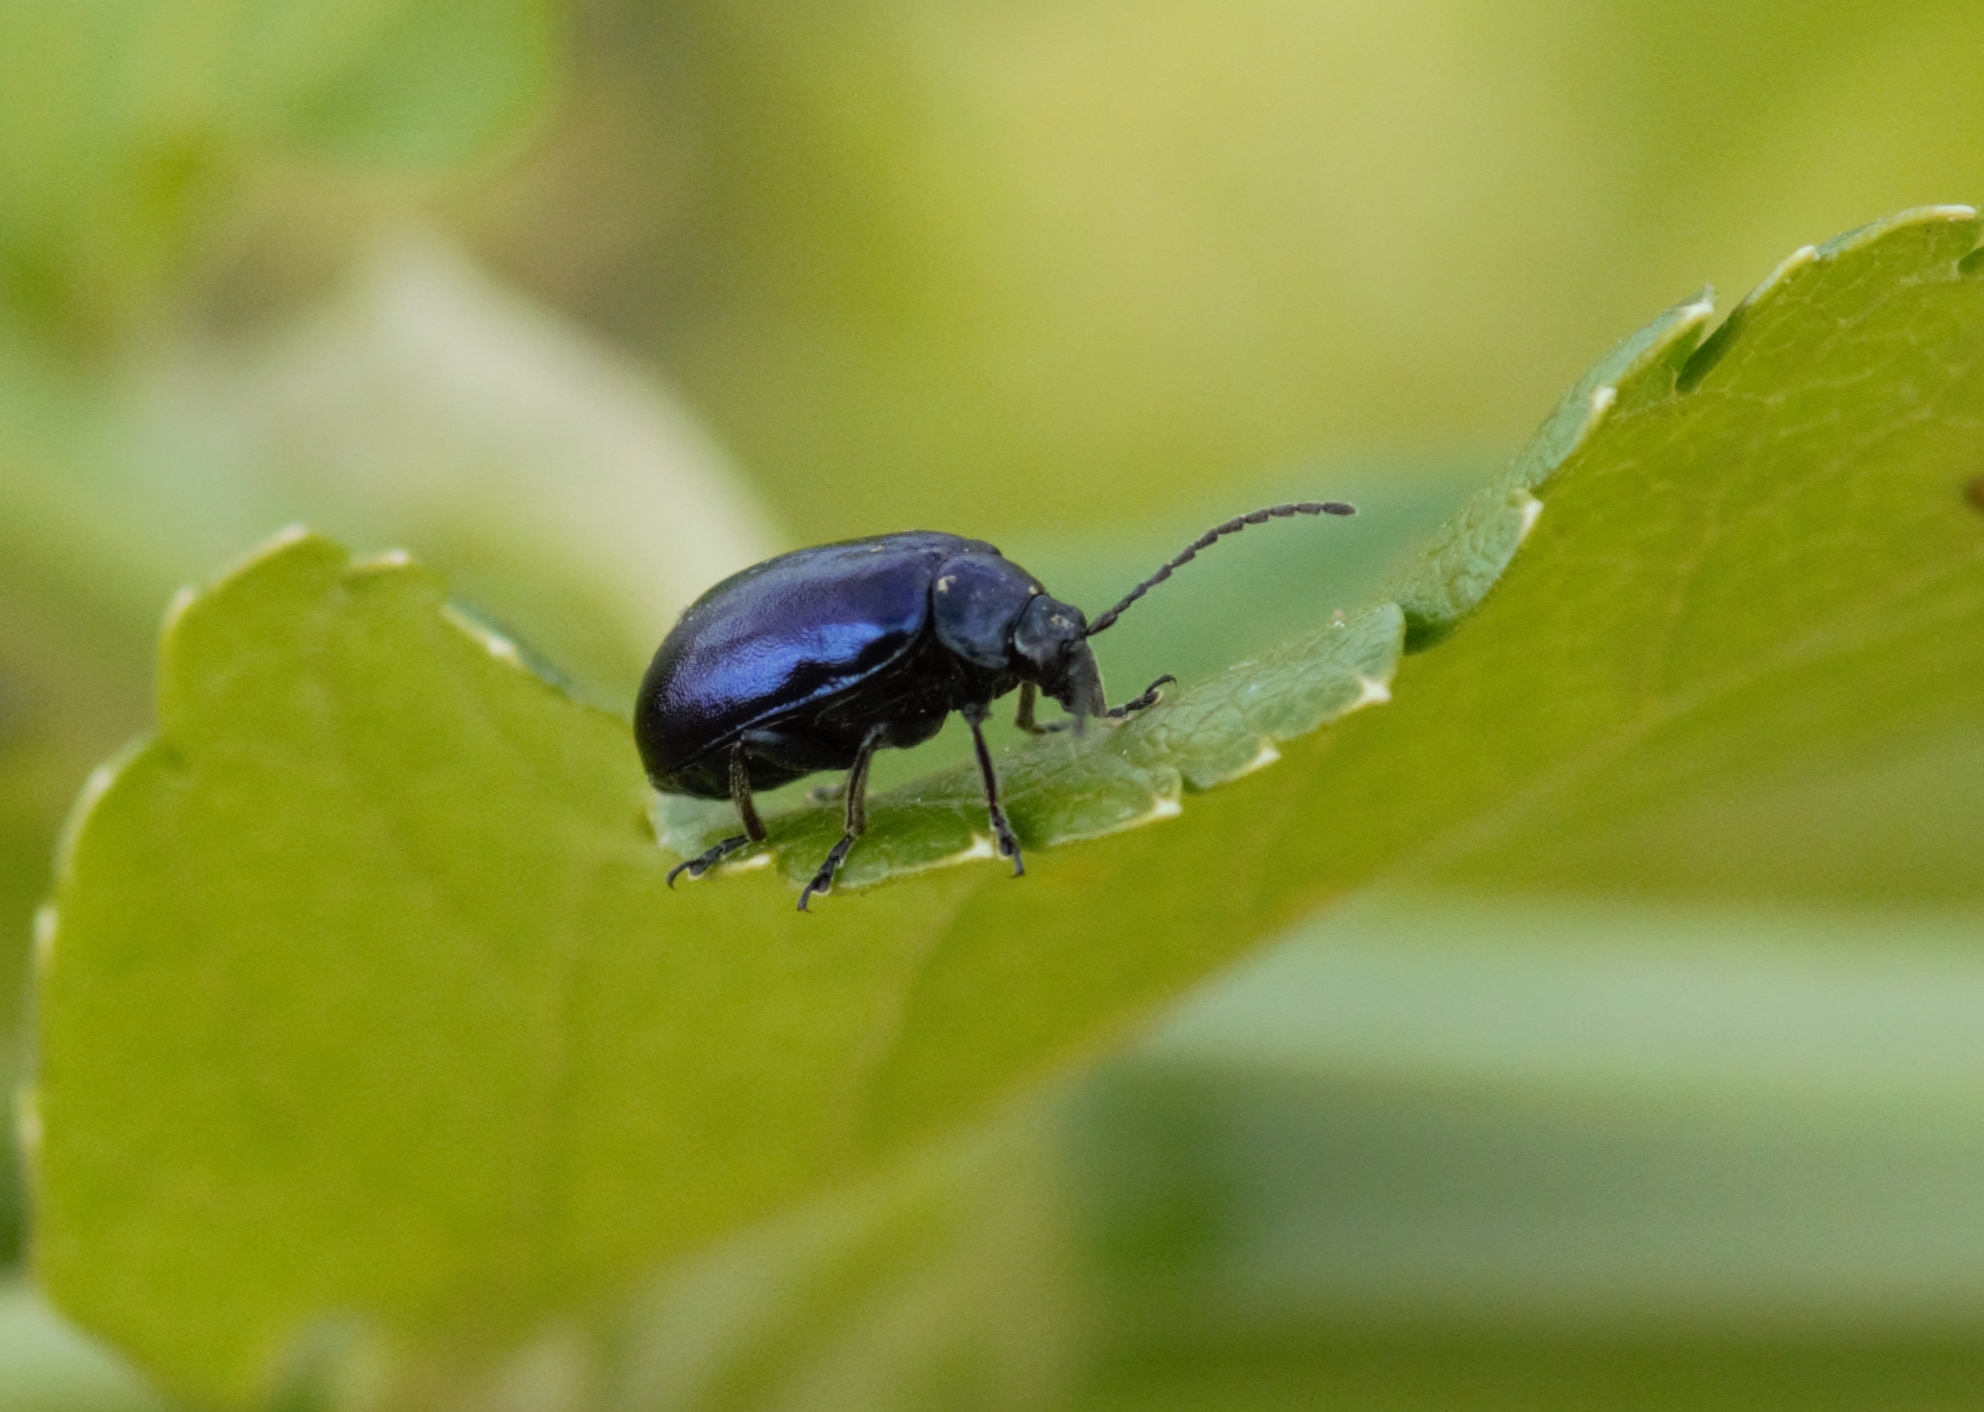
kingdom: Animalia
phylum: Arthropoda
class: Insecta
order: Coleoptera
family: Chrysomelidae
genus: Agelastica
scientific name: Agelastica alni
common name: Alder leaf beetle
